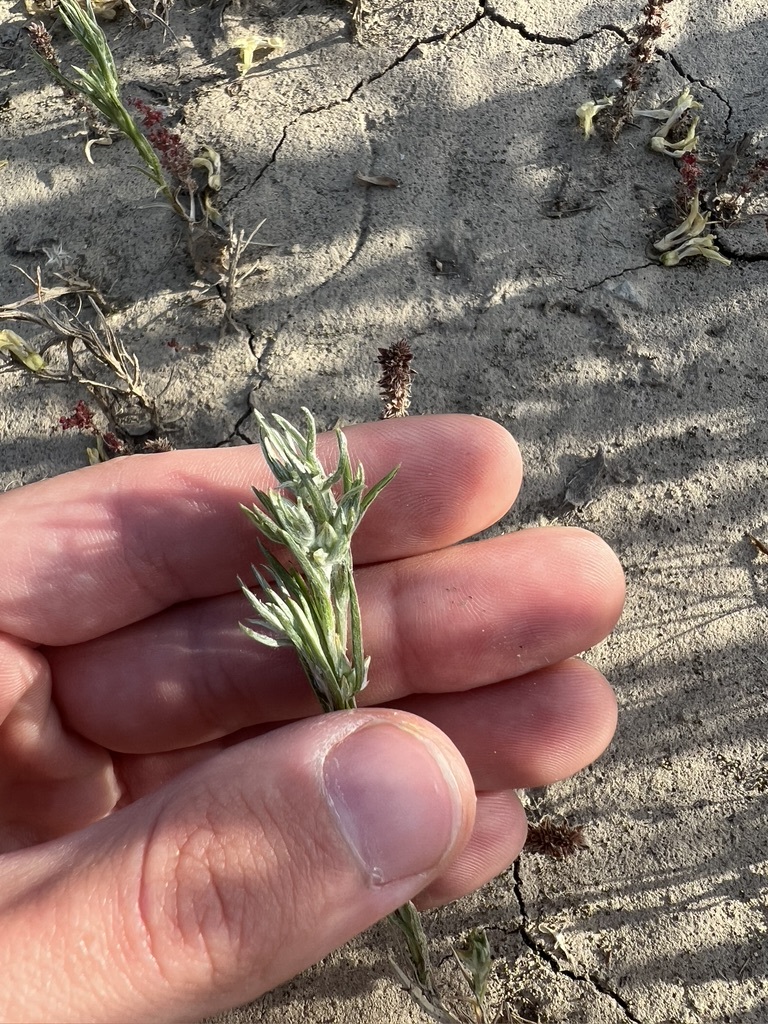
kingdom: Plantae
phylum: Tracheophyta
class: Magnoliopsida
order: Asterales
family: Asteraceae
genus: Logfia
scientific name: Logfia gallica
